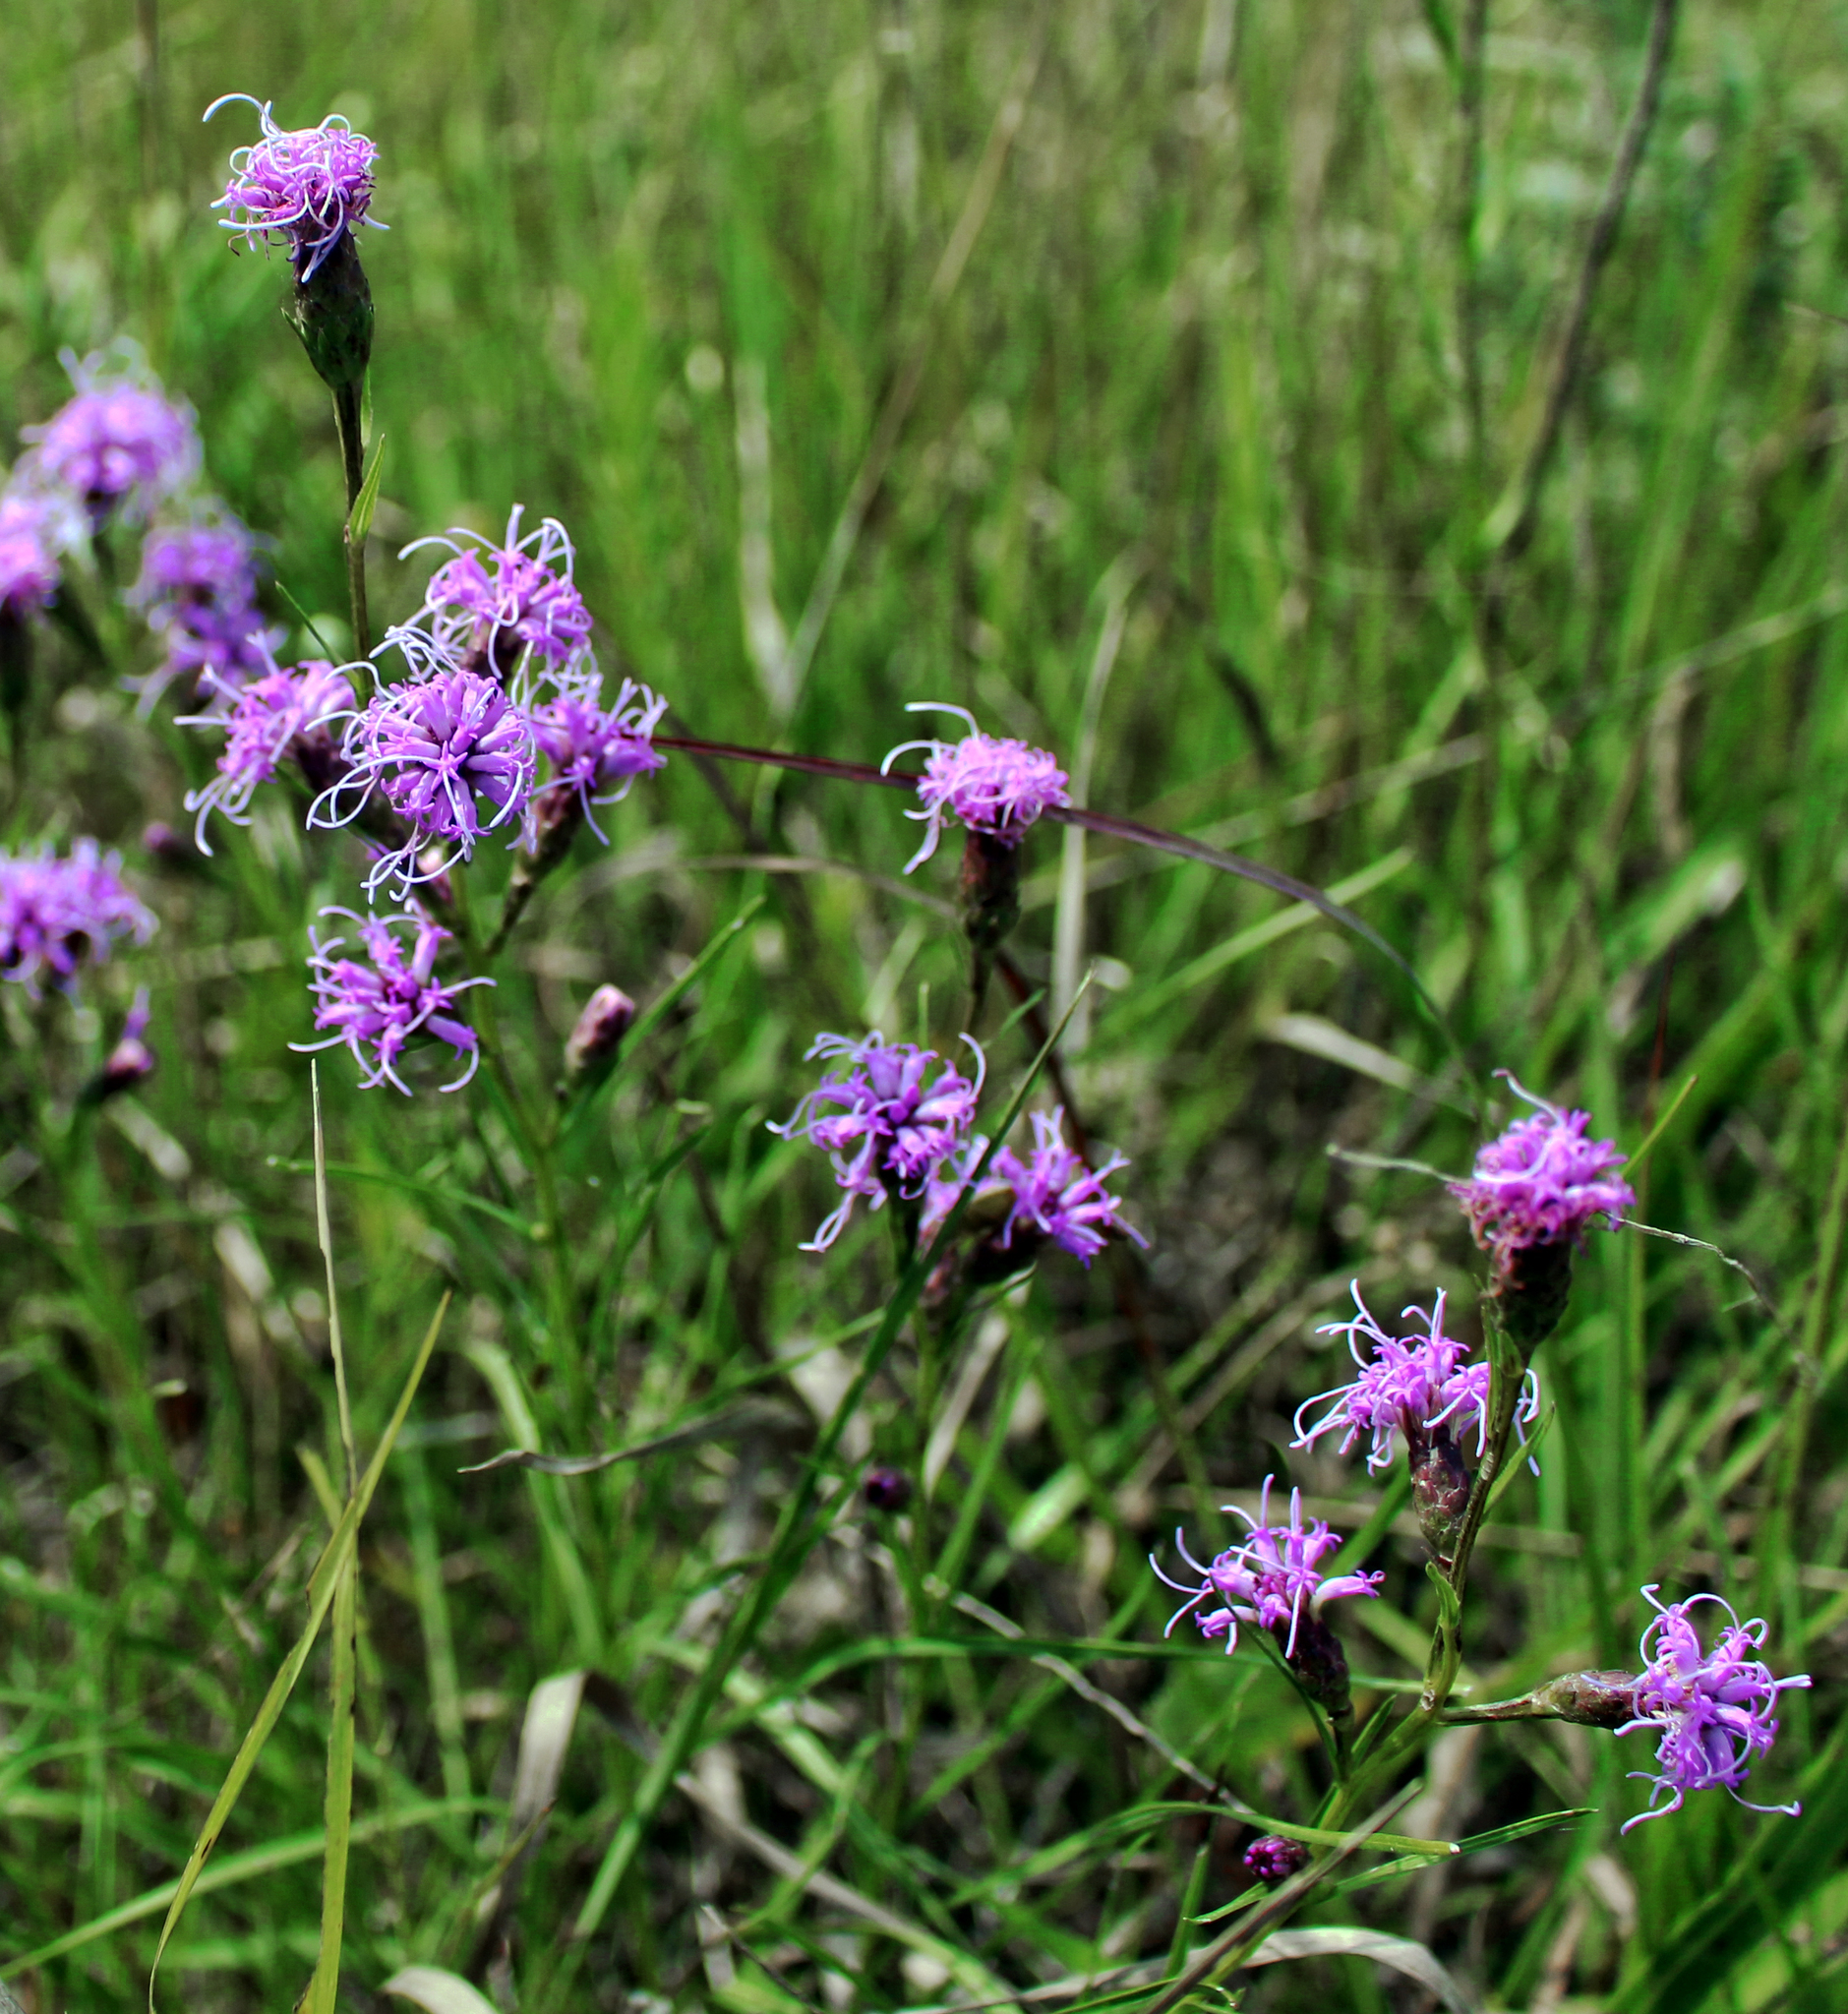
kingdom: Plantae
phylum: Tracheophyta
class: Magnoliopsida
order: Asterales
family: Asteraceae
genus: Liatris
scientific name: Liatris cylindracea
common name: Few-head blazingstar
